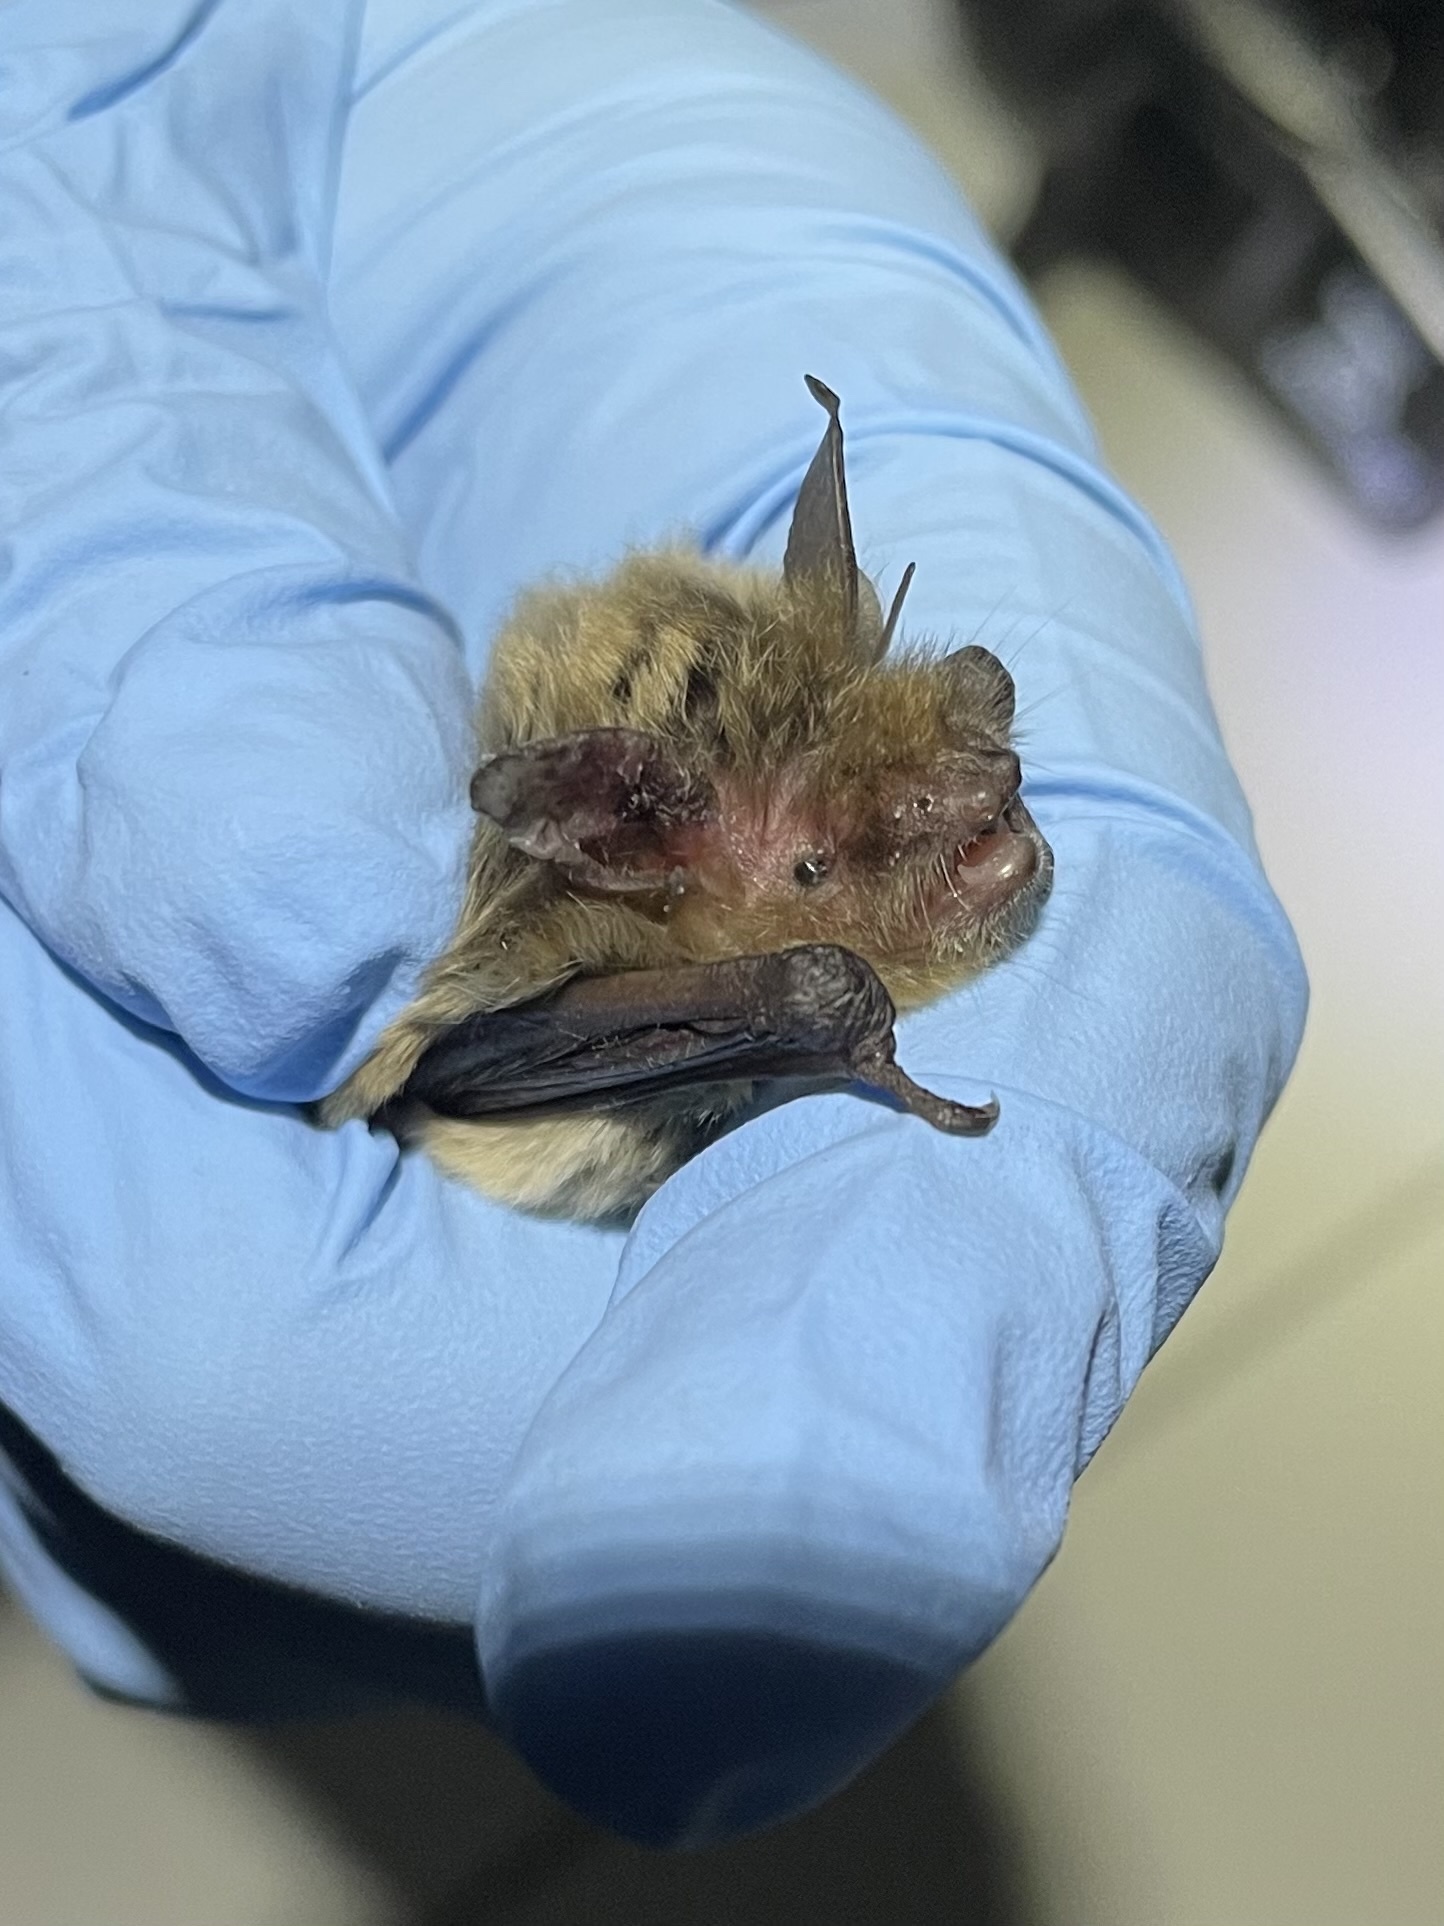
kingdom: Animalia
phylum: Chordata
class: Mammalia
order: Chiroptera
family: Vespertilionidae
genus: Myotis
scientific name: Myotis yumanensis
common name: Yuma myotis
